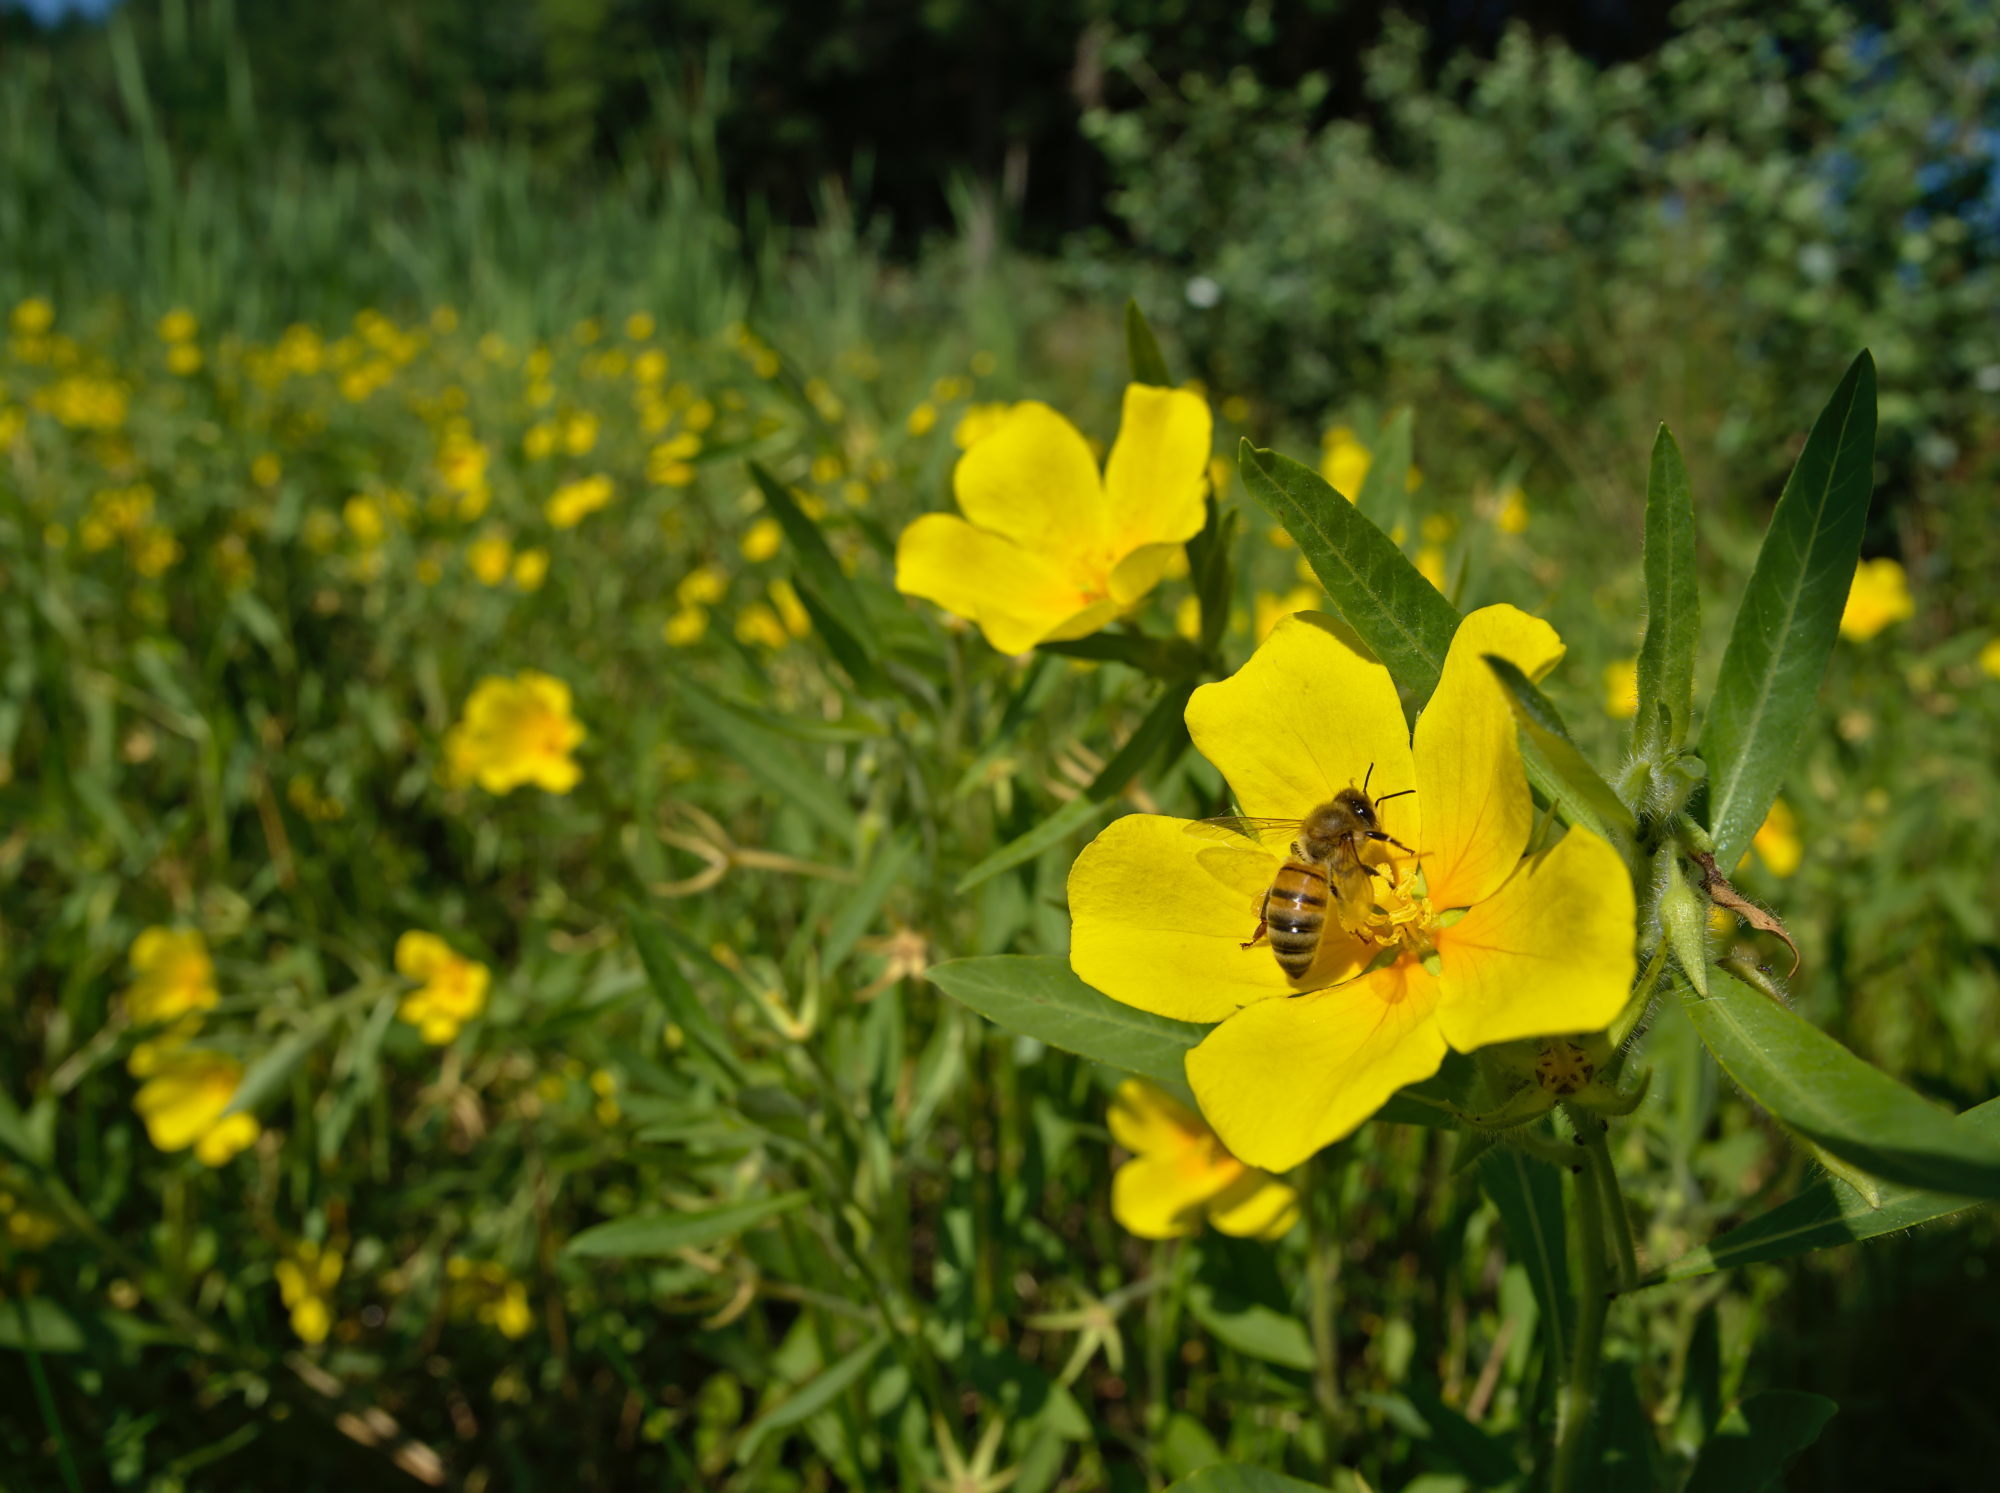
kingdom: Plantae
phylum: Tracheophyta
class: Magnoliopsida
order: Myrtales
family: Onagraceae
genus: Ludwigia
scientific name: Ludwigia grandiflora
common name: Water primrose
